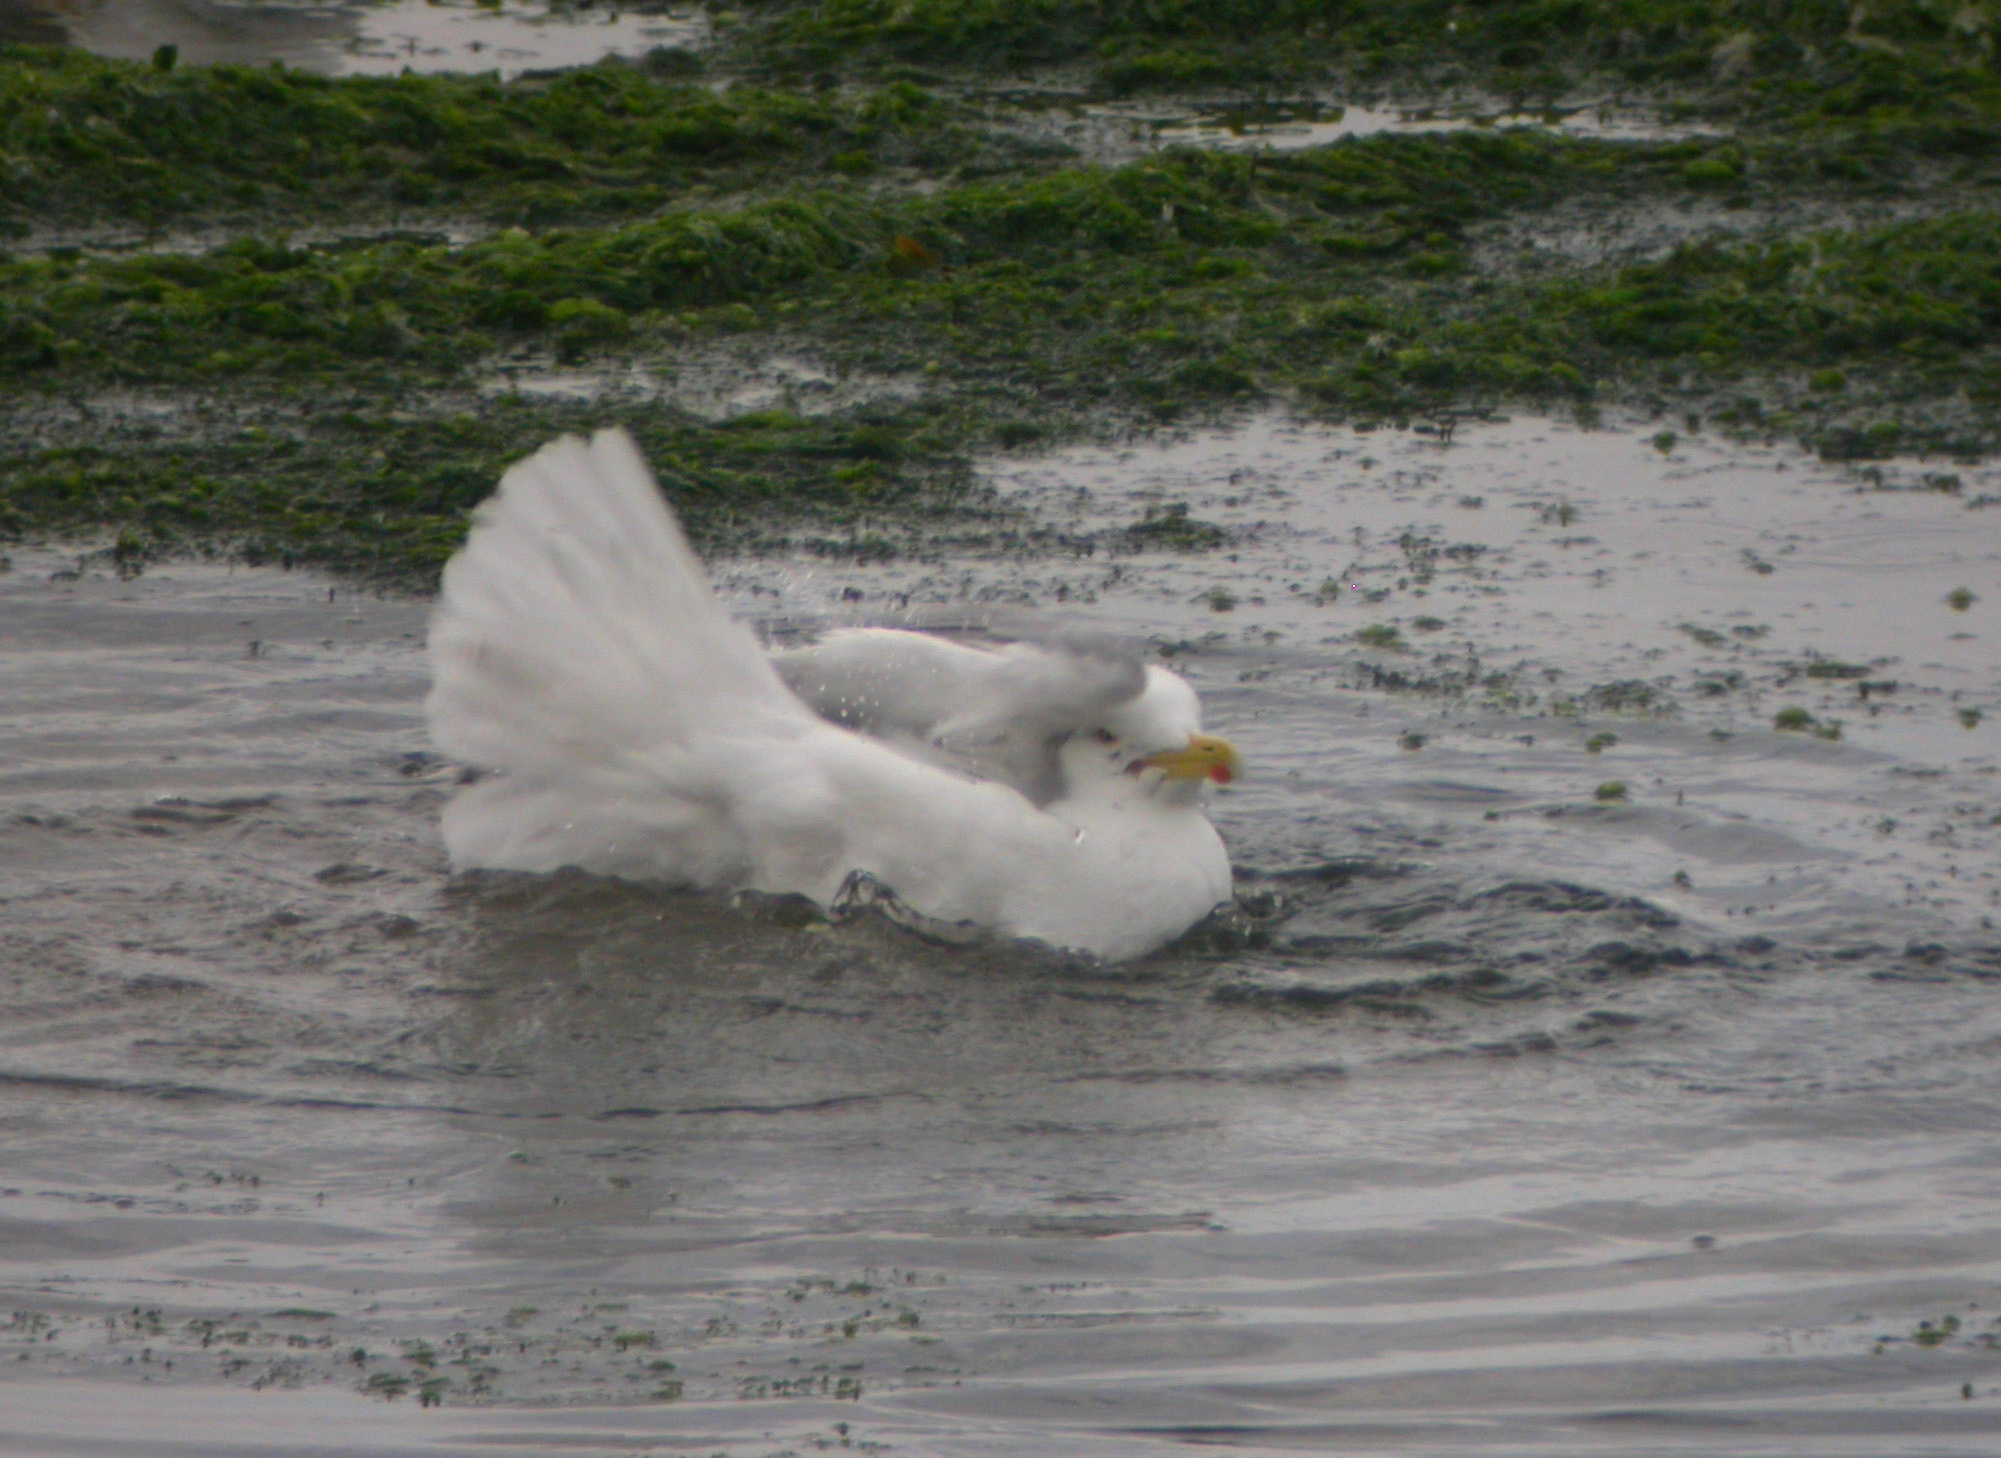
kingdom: Animalia
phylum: Chordata
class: Aves
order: Charadriiformes
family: Laridae
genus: Larus
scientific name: Larus argentatus
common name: Herring gull
